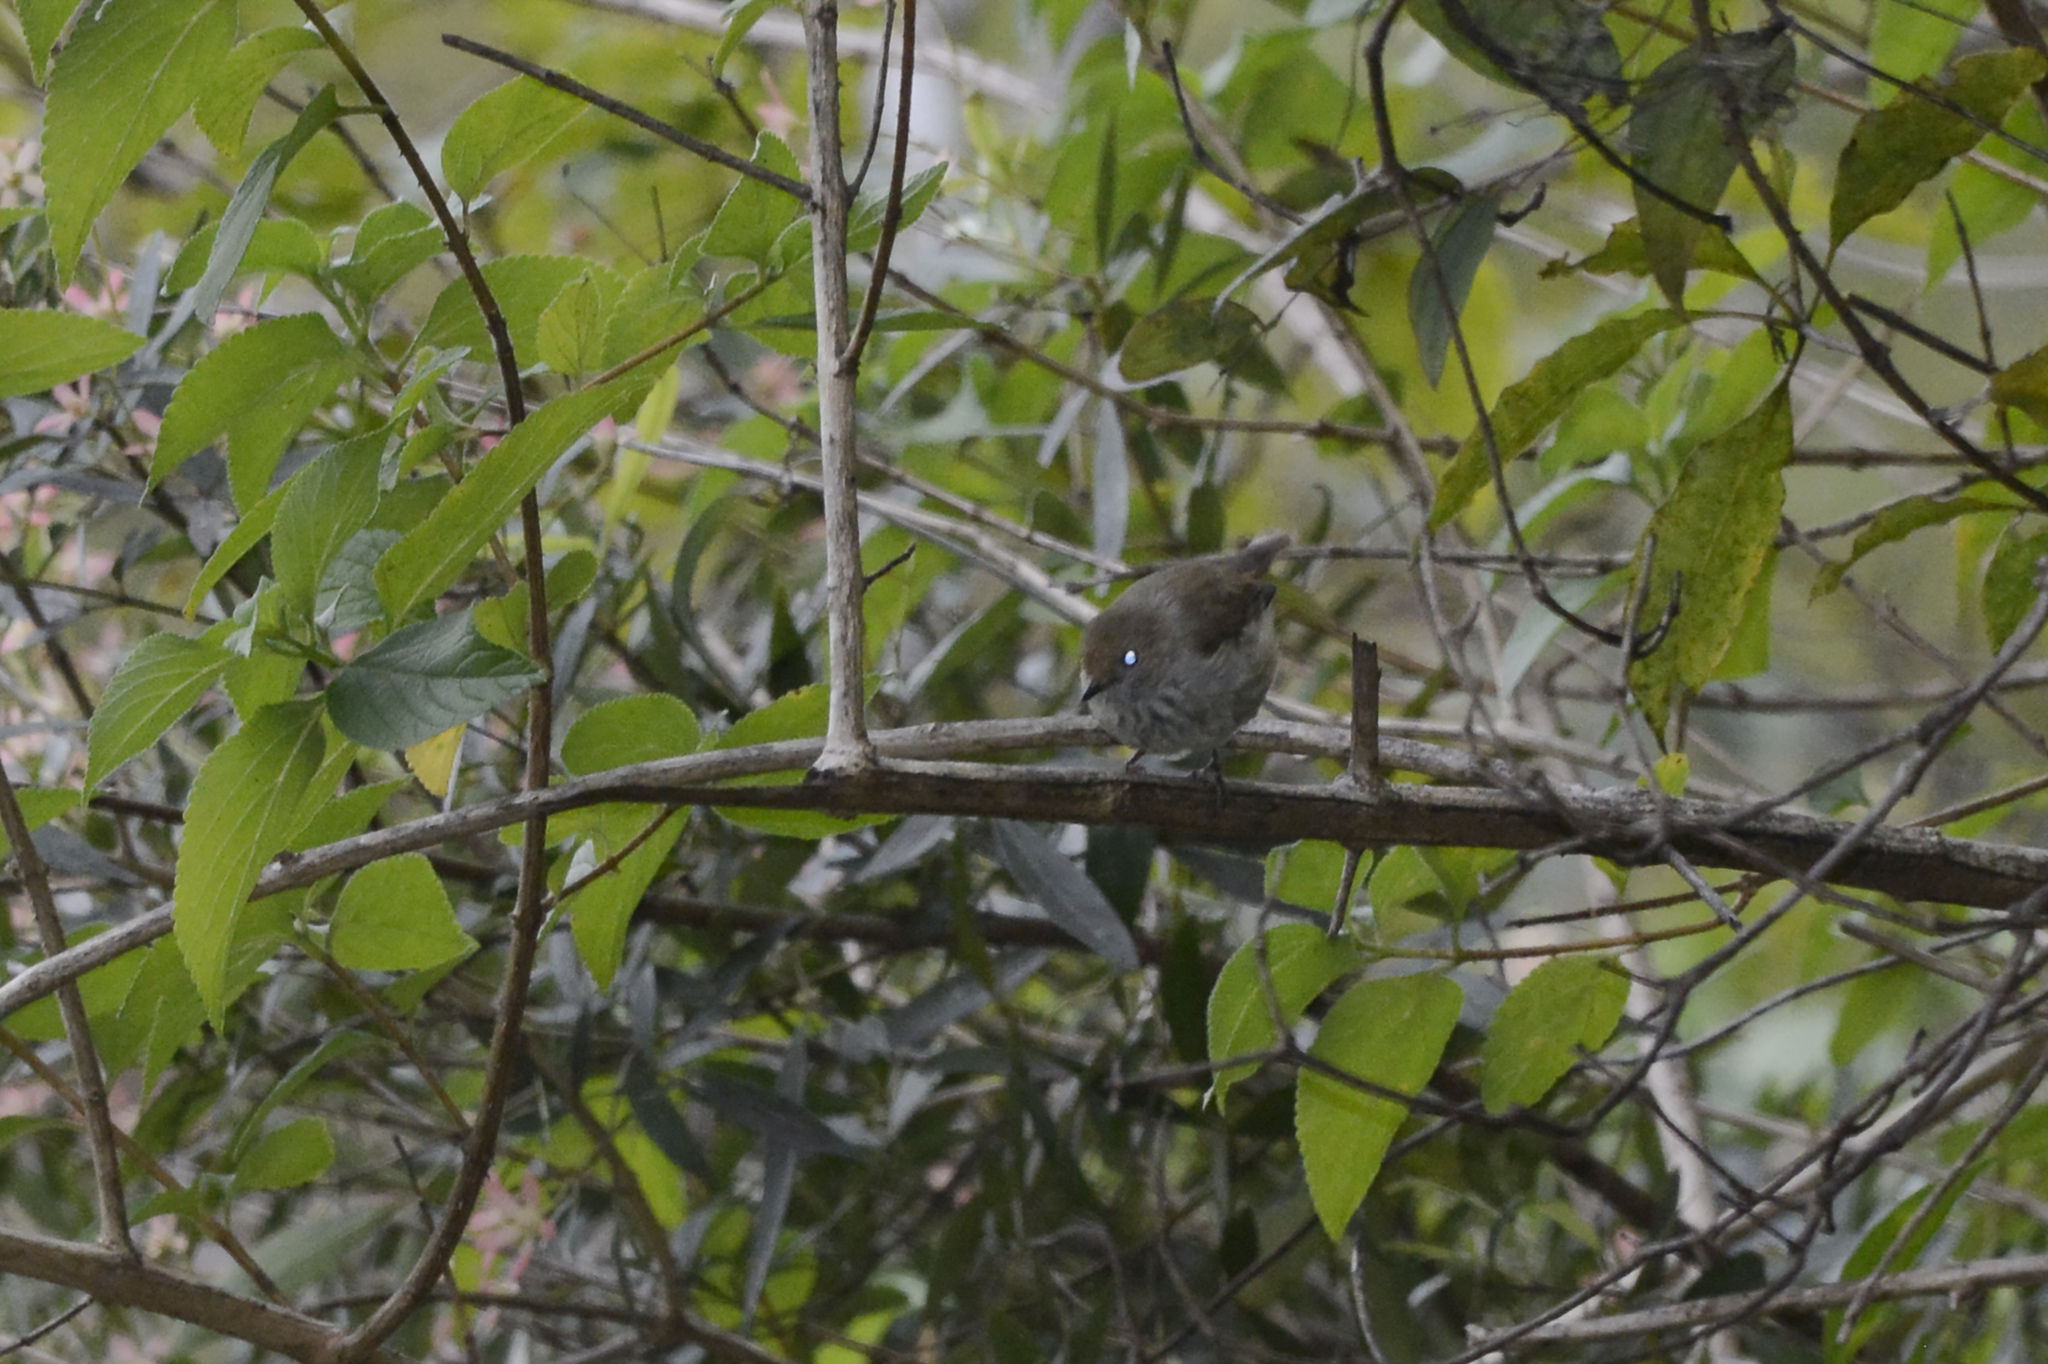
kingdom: Animalia
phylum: Chordata
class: Aves
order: Passeriformes
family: Acanthizidae
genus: Acanthiza
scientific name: Acanthiza pusilla
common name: Brown thornbill
